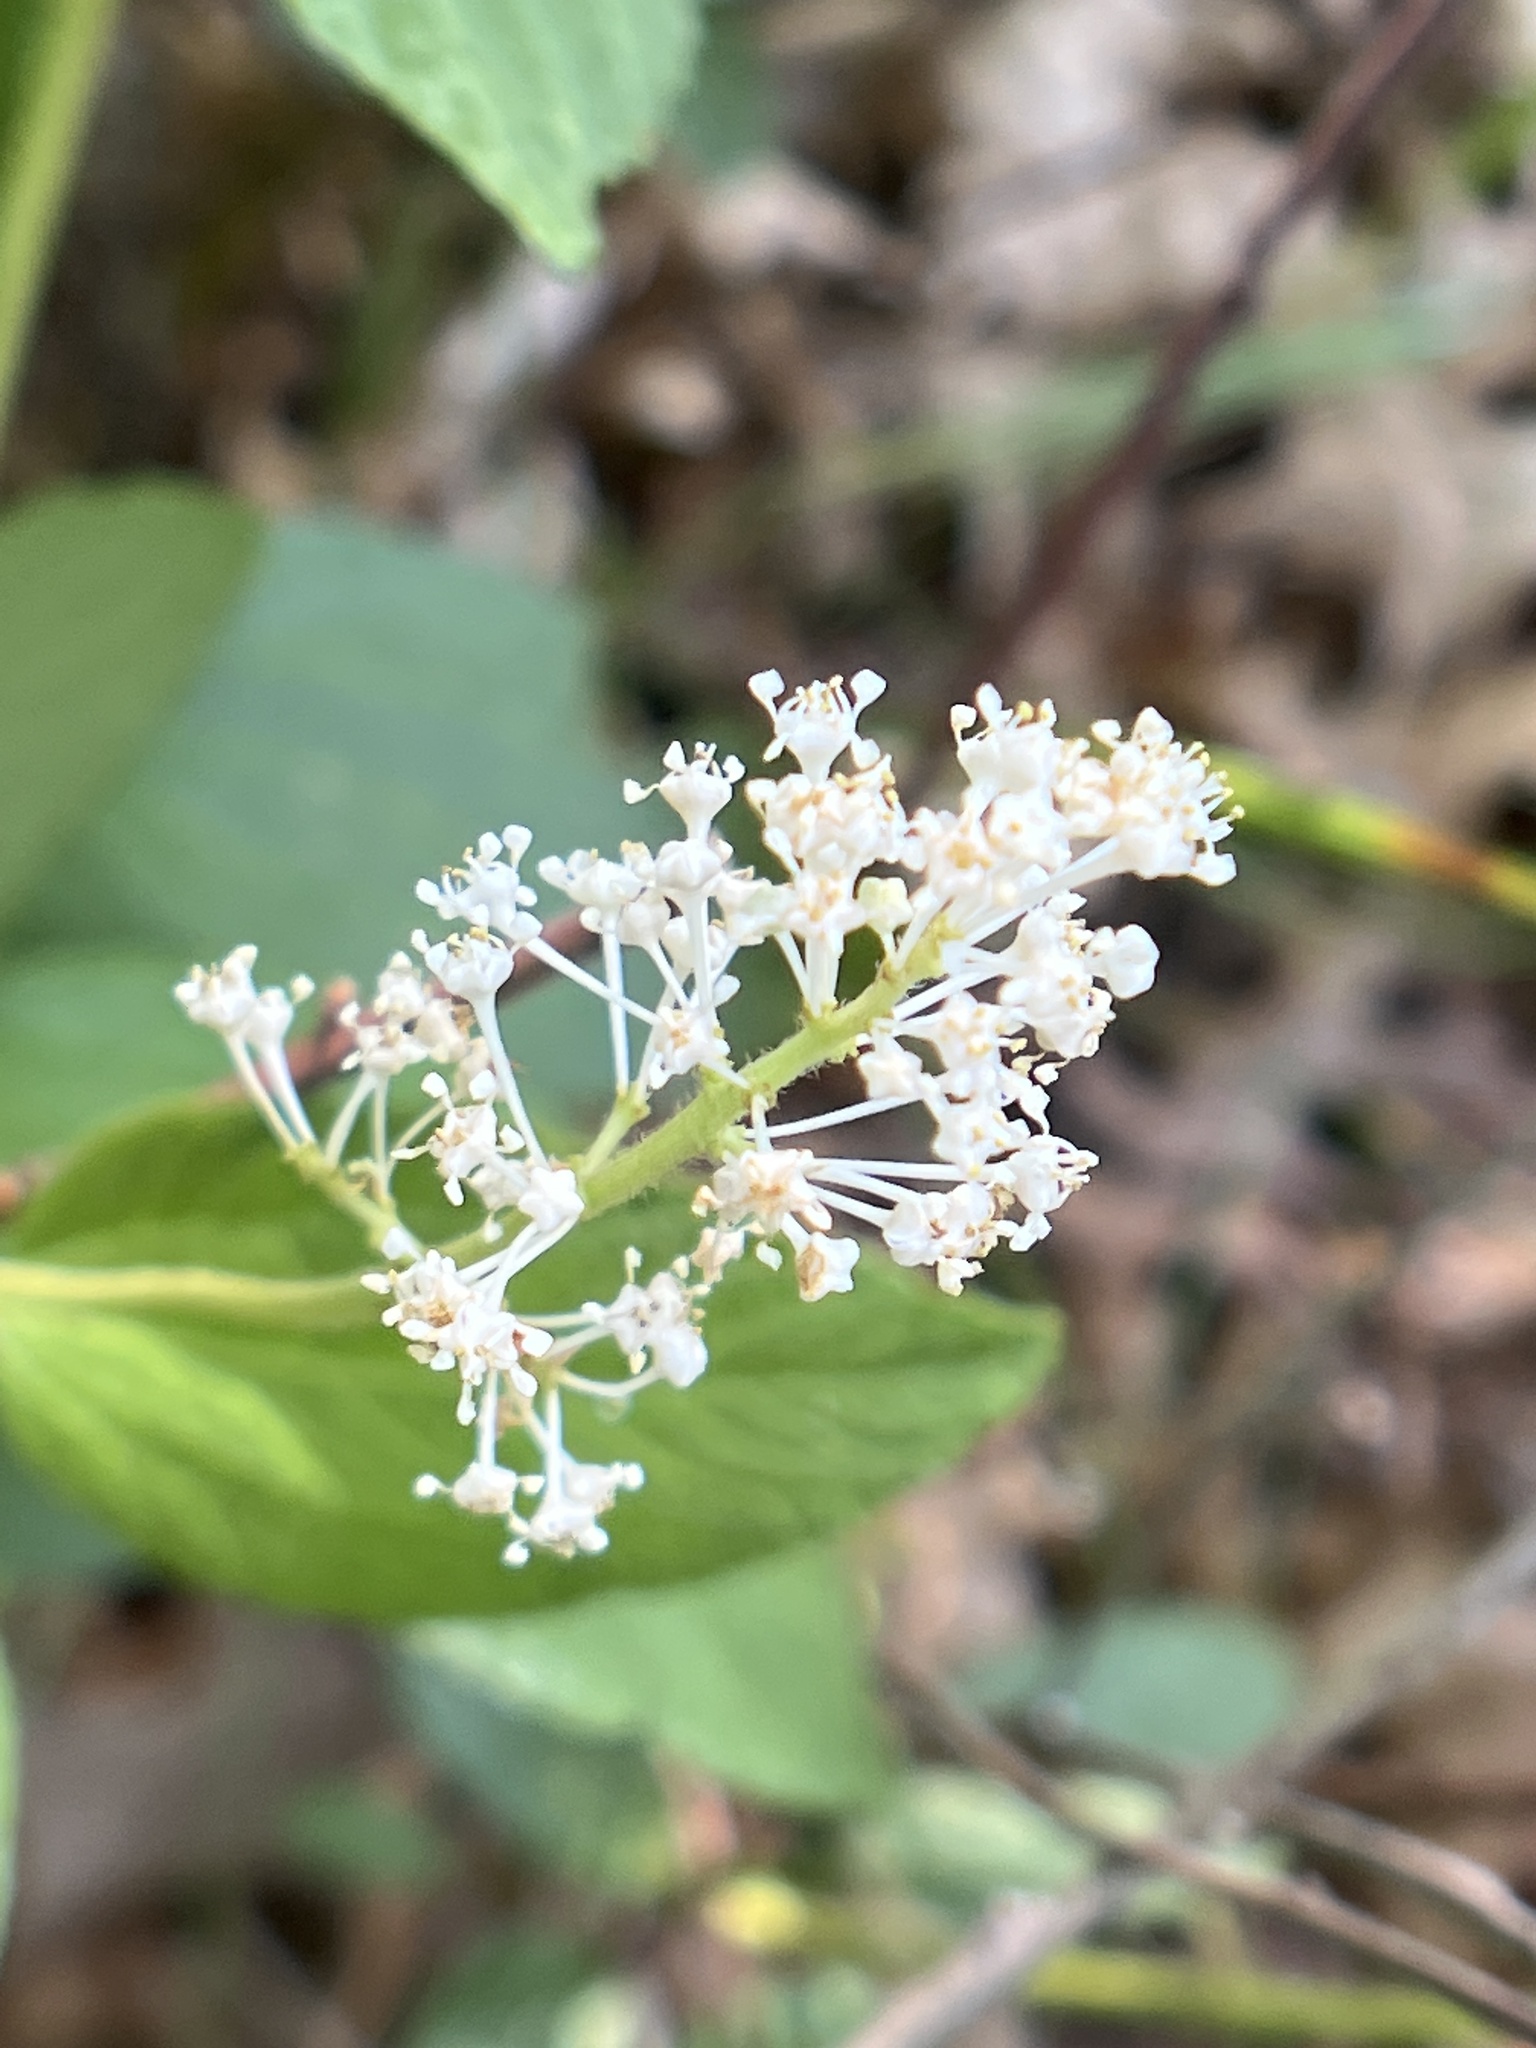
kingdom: Plantae
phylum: Tracheophyta
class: Magnoliopsida
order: Rosales
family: Rhamnaceae
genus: Ceanothus
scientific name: Ceanothus americanus
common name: Redroot
